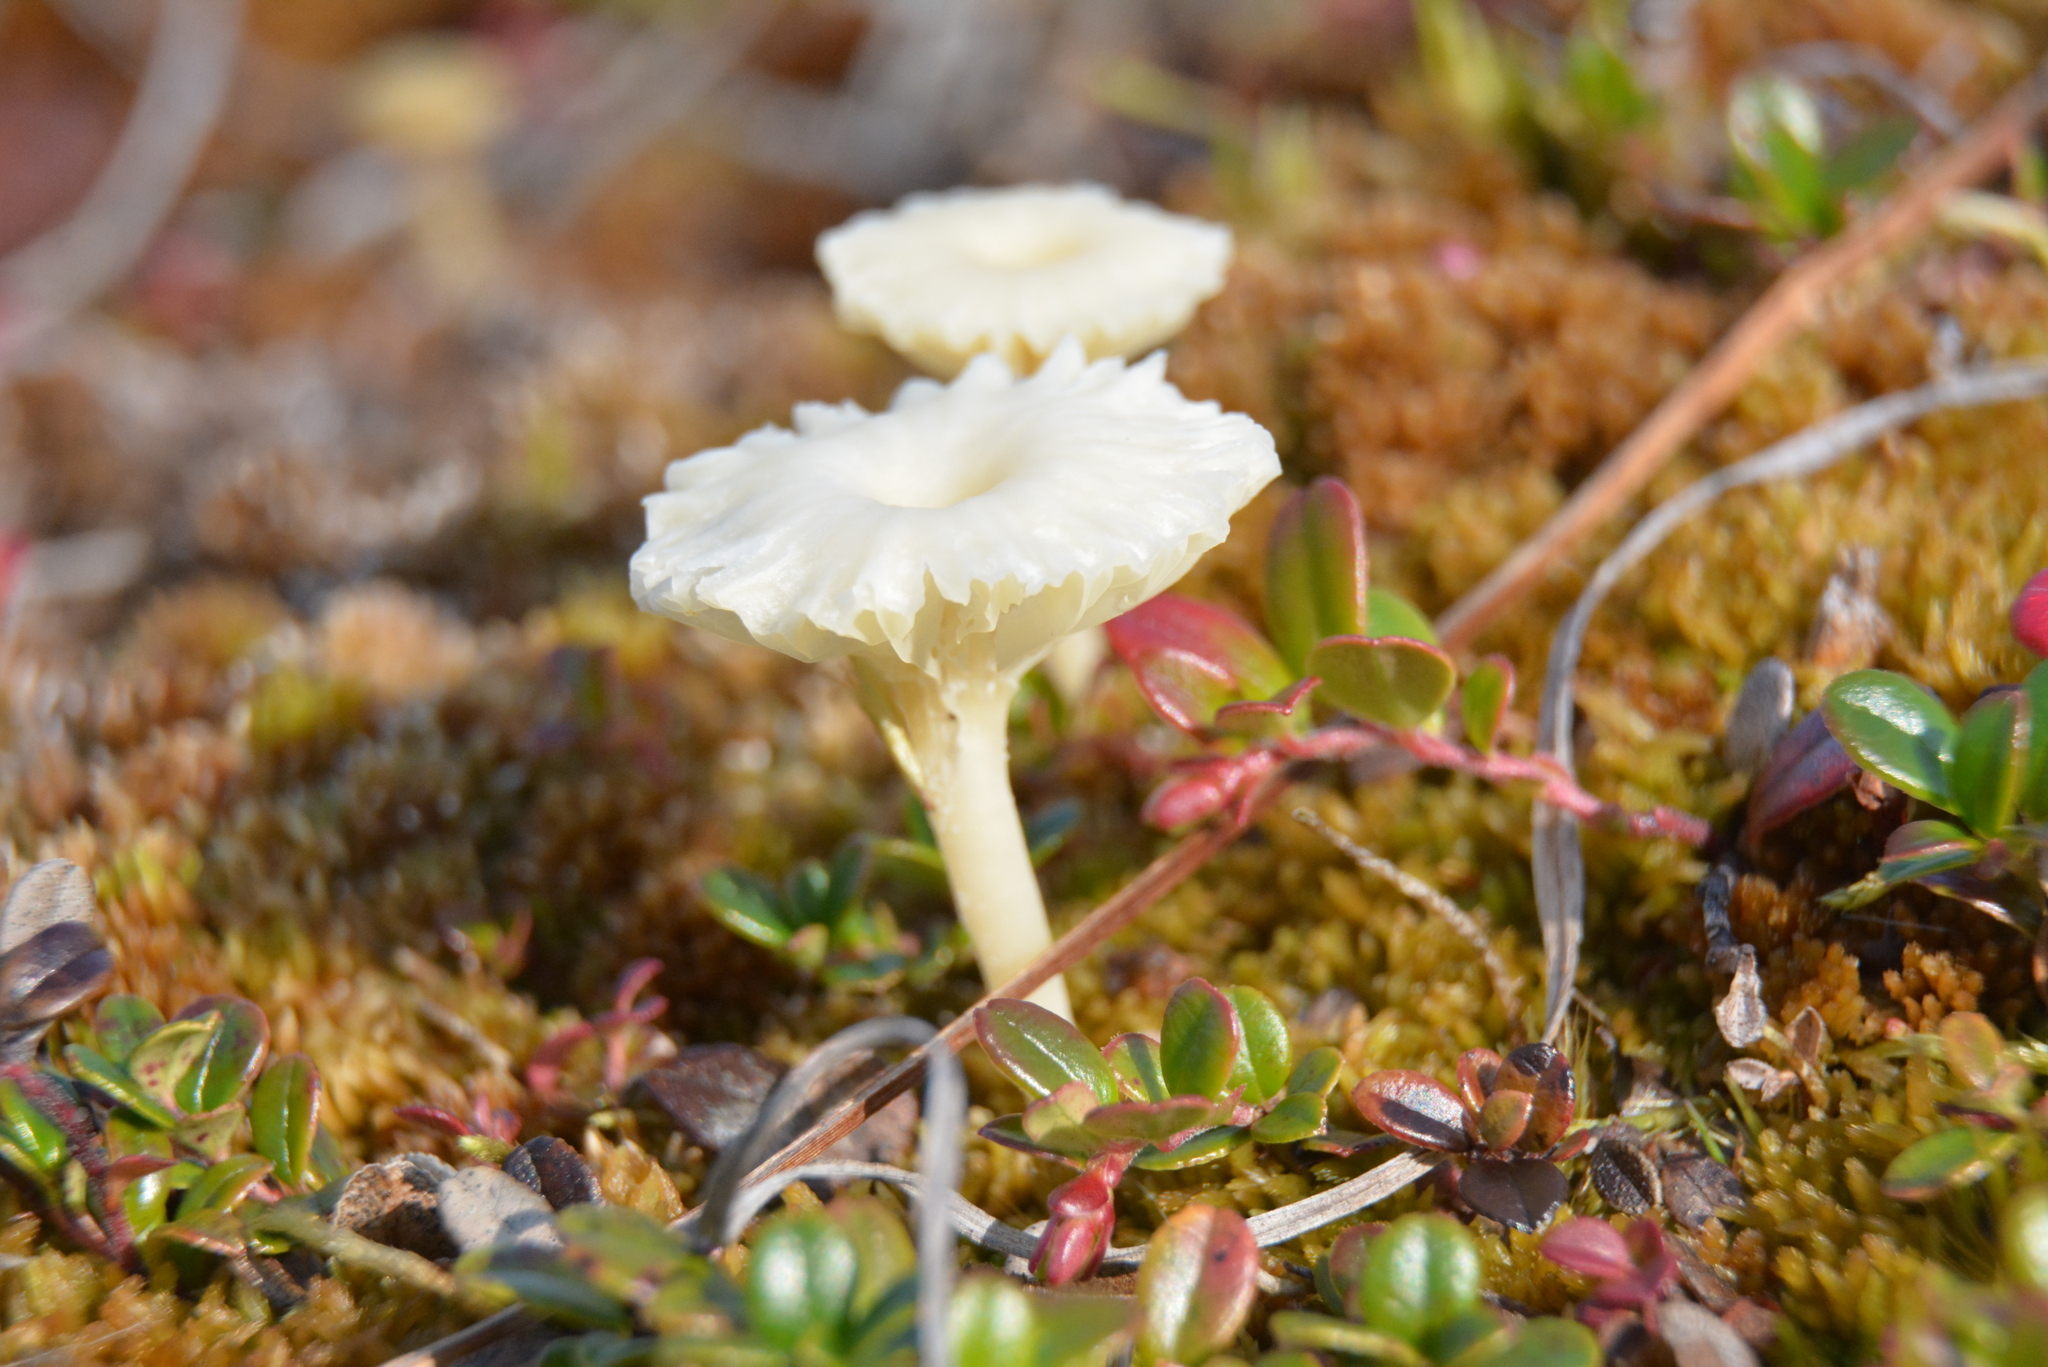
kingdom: Fungi
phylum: Basidiomycota
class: Agaricomycetes
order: Agaricales
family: Hygrophoraceae
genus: Lichenomphalia
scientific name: Lichenomphalia
